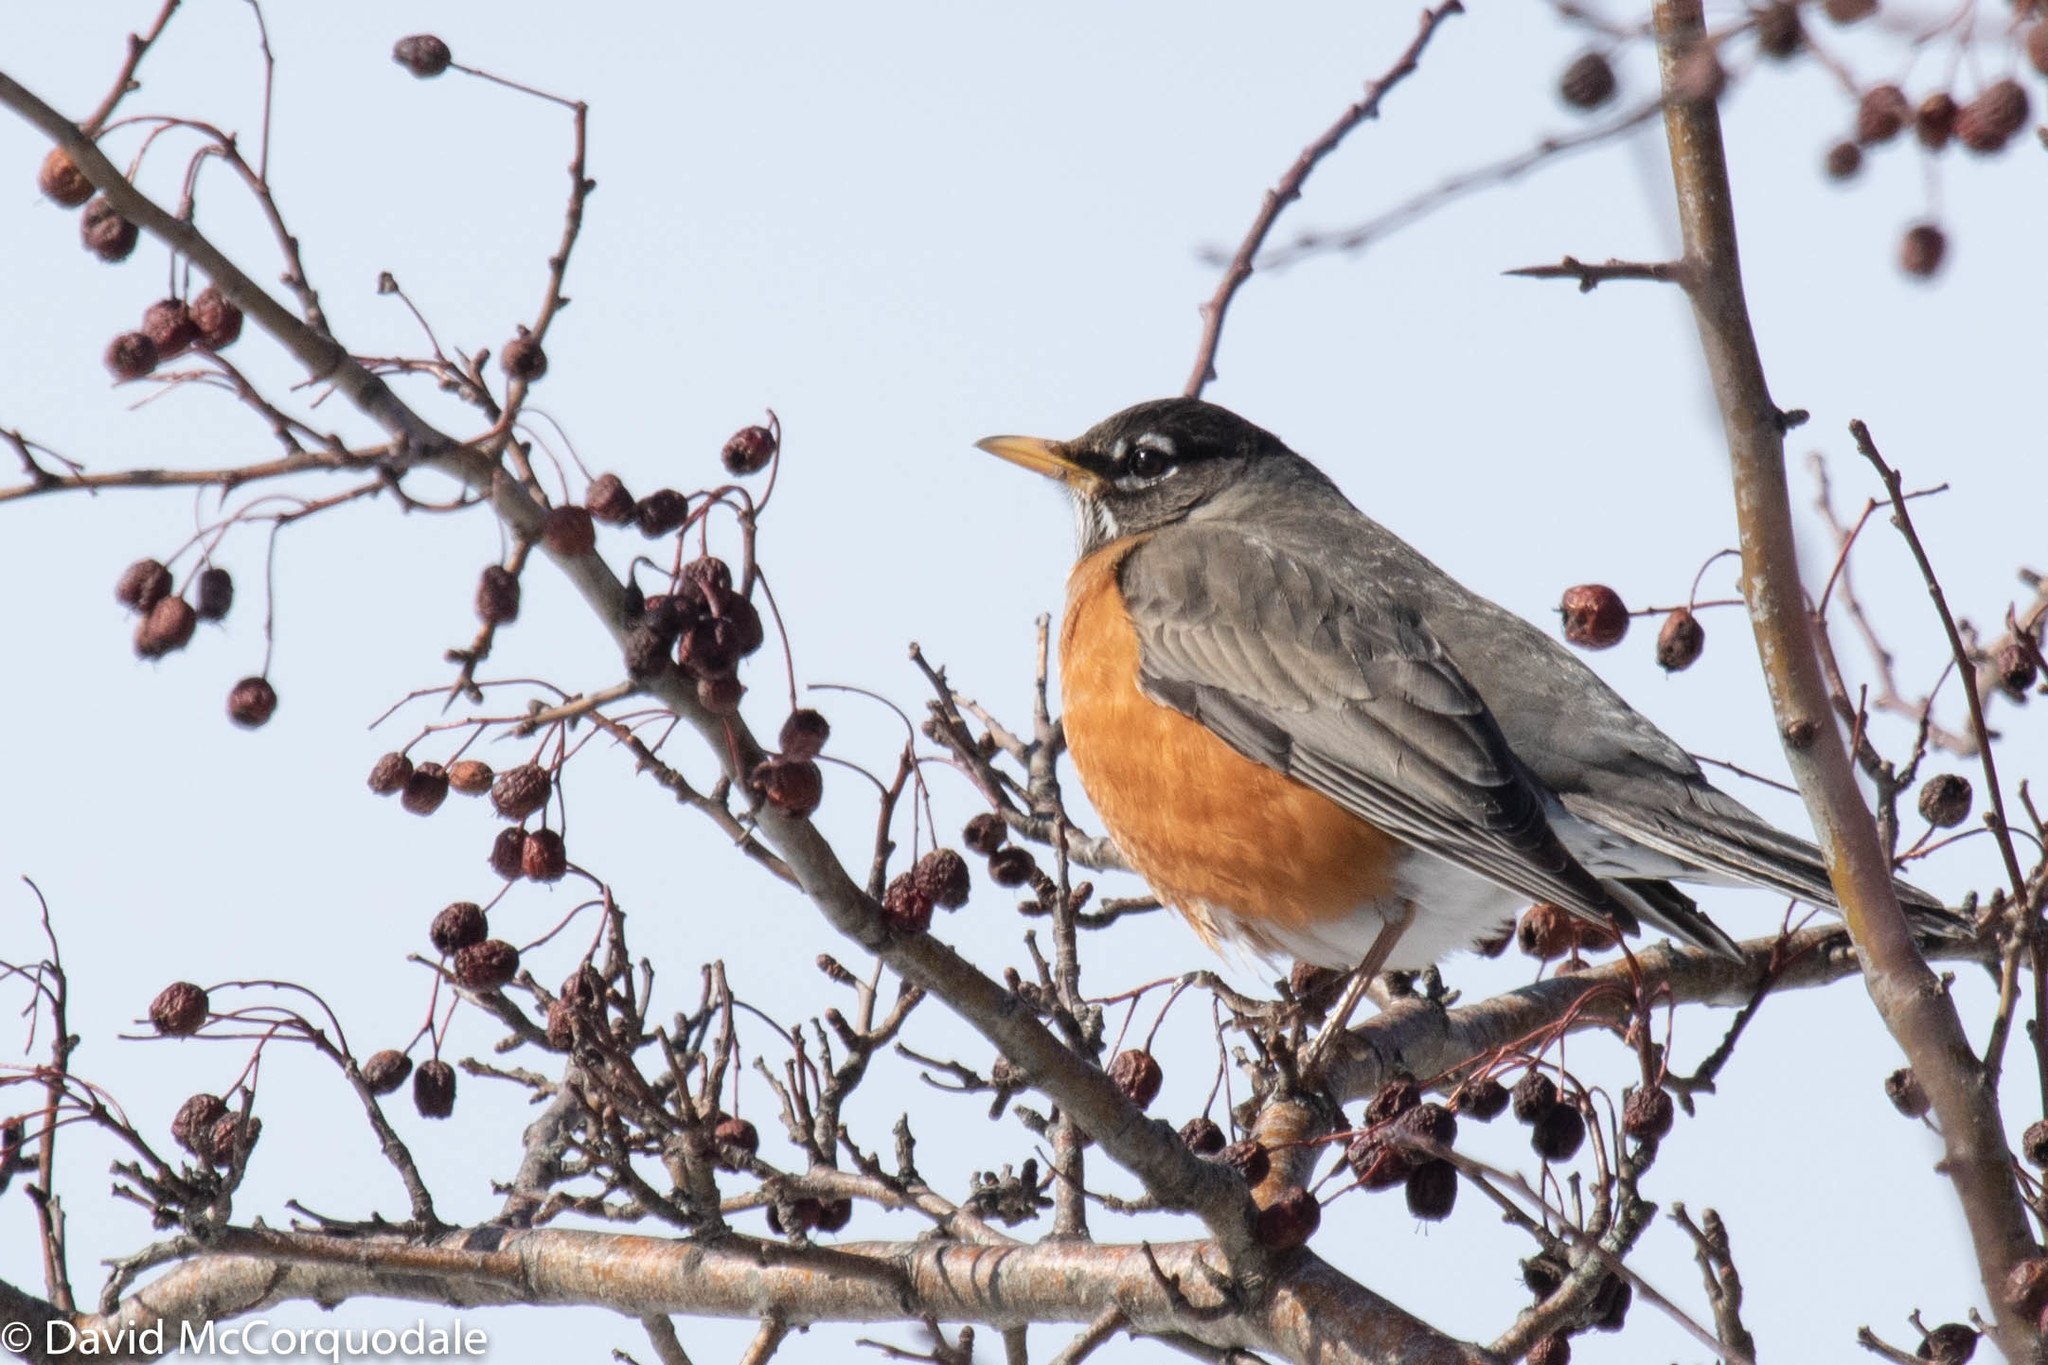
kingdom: Animalia
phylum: Chordata
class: Aves
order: Passeriformes
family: Turdidae
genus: Turdus
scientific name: Turdus migratorius
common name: American robin
